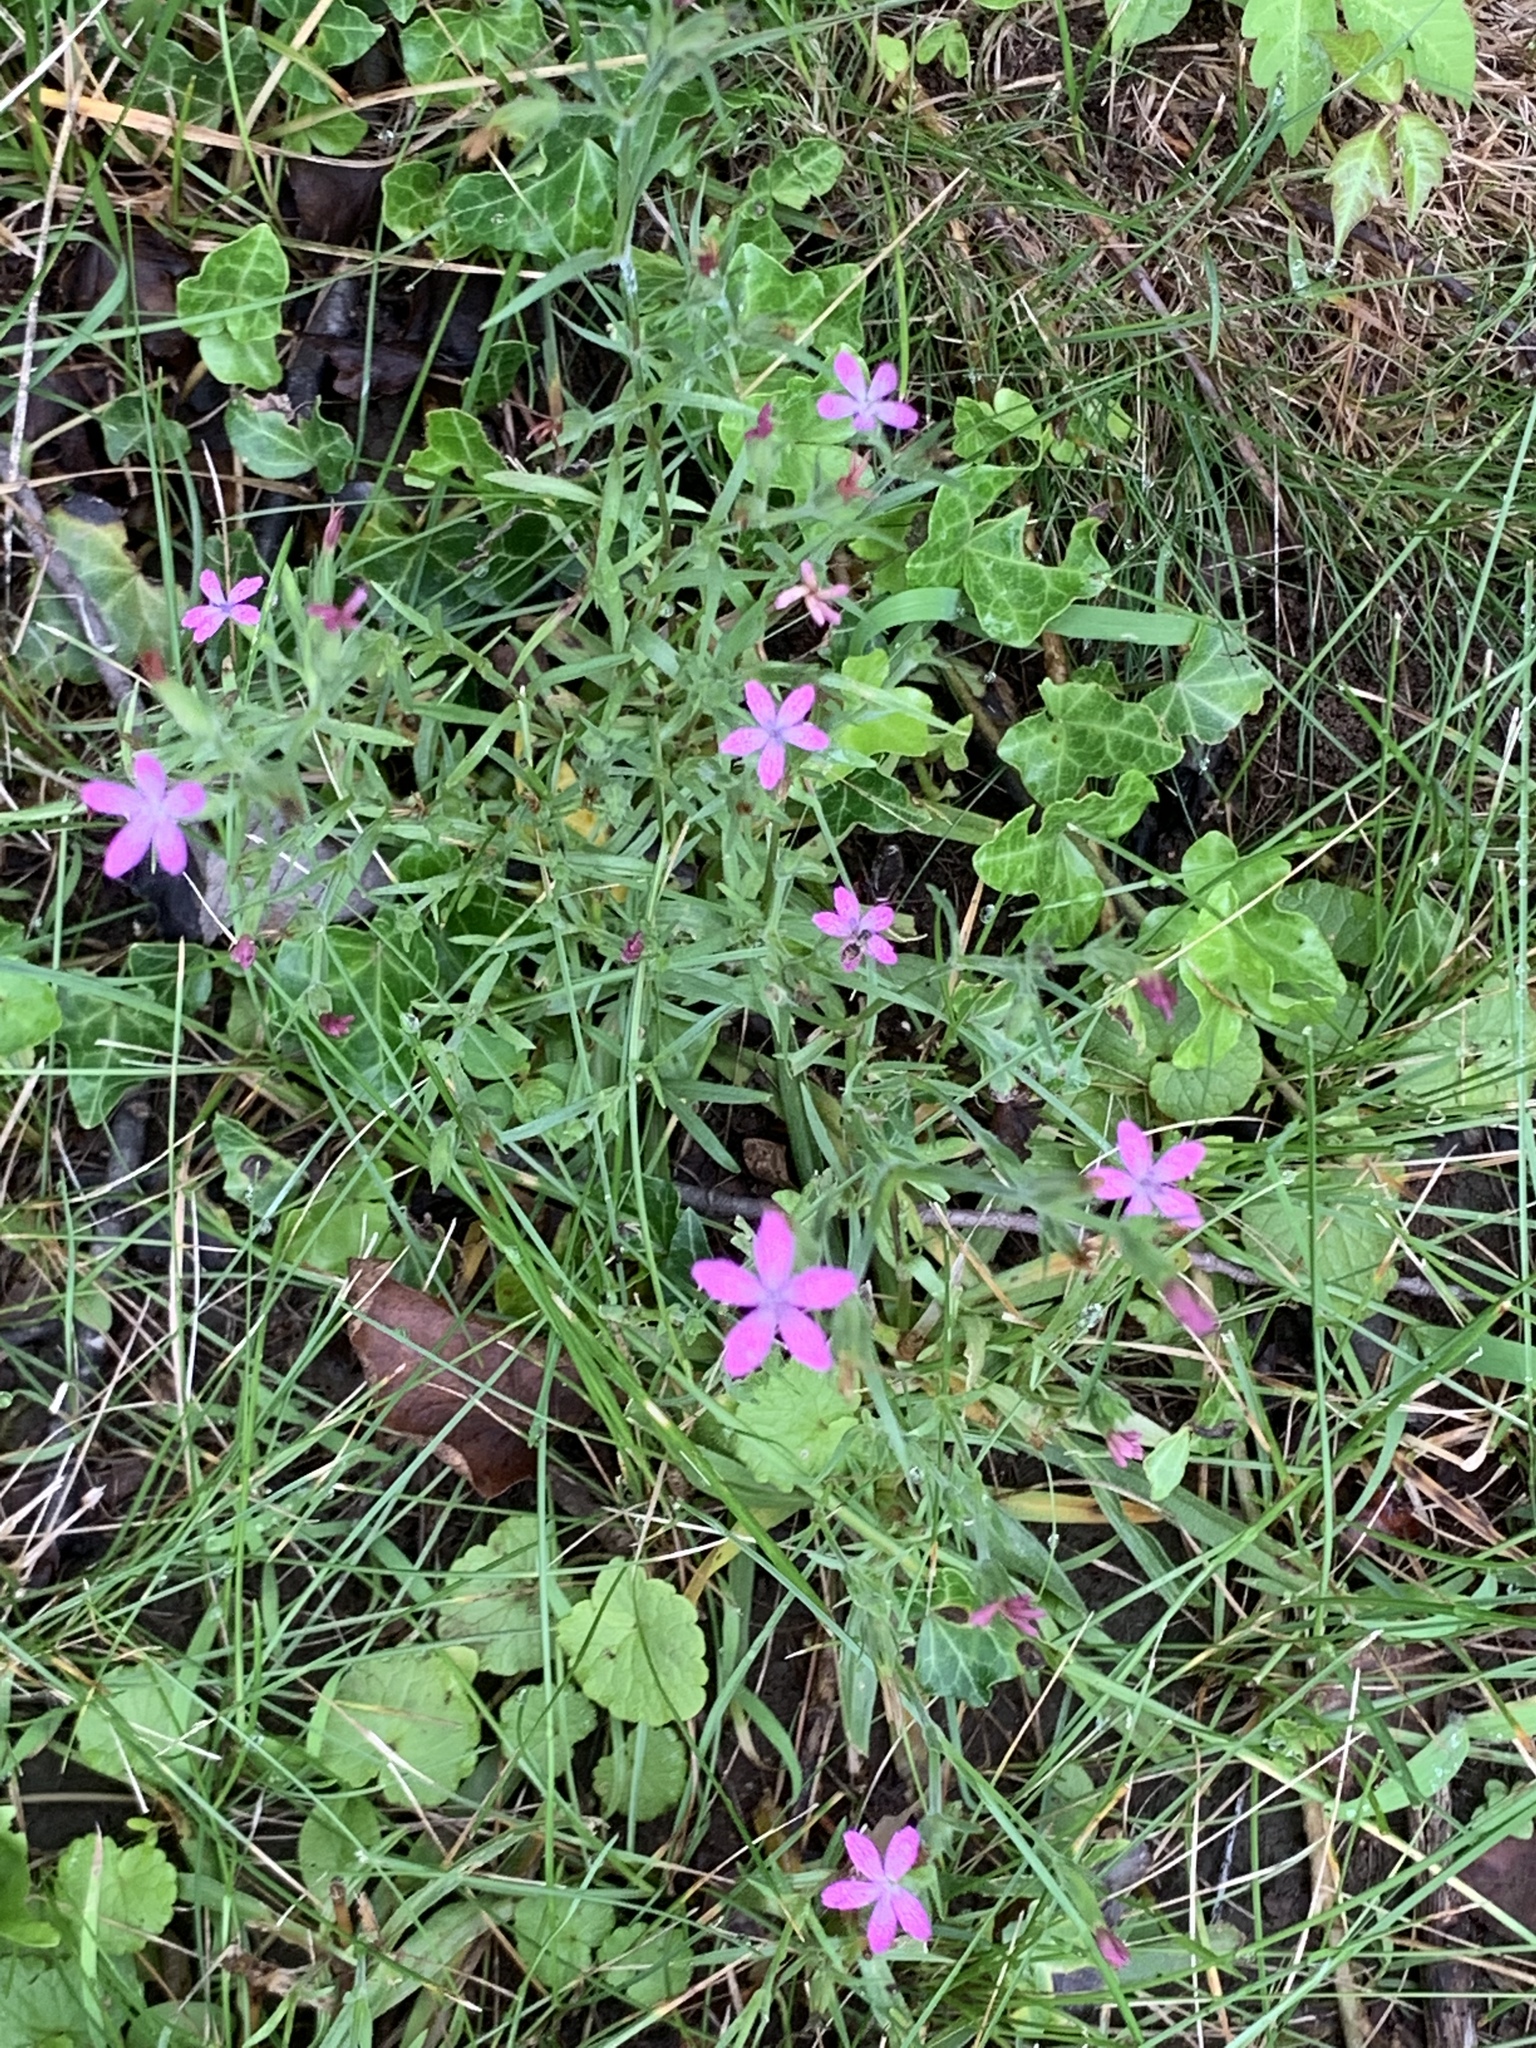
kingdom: Plantae
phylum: Tracheophyta
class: Magnoliopsida
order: Caryophyllales
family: Caryophyllaceae
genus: Dianthus
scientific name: Dianthus armeria
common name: Deptford pink
